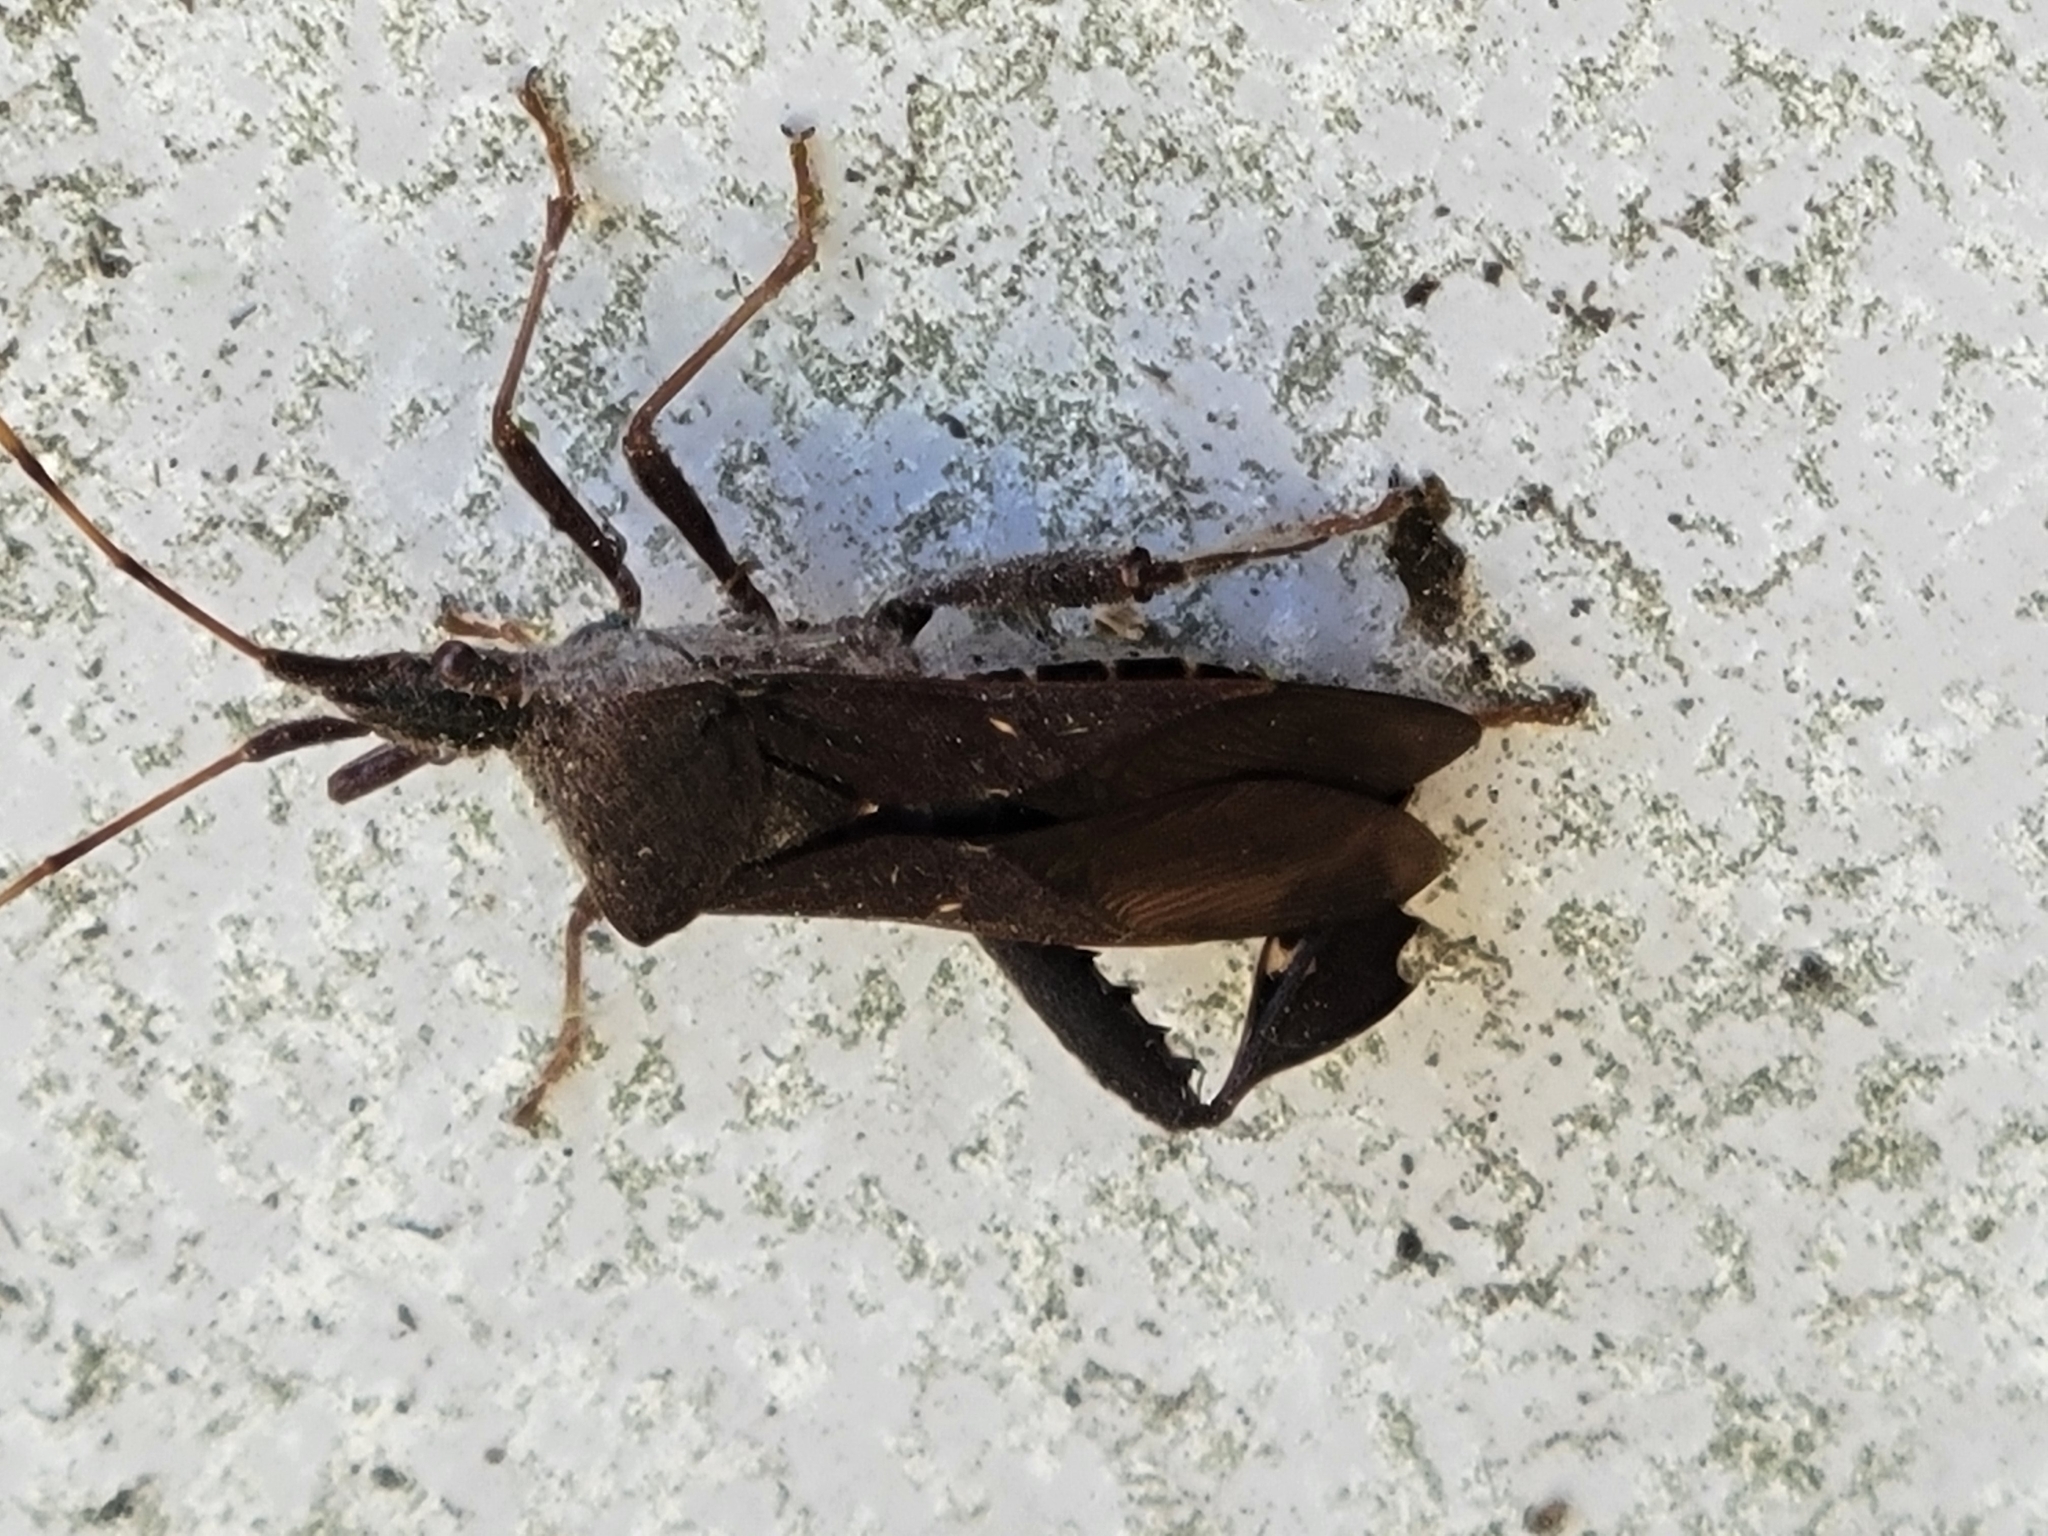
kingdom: Animalia
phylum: Arthropoda
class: Insecta
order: Hemiptera
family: Coreidae
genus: Leptoglossus
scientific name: Leptoglossus oppositus
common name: Northern leaf-footed bug
